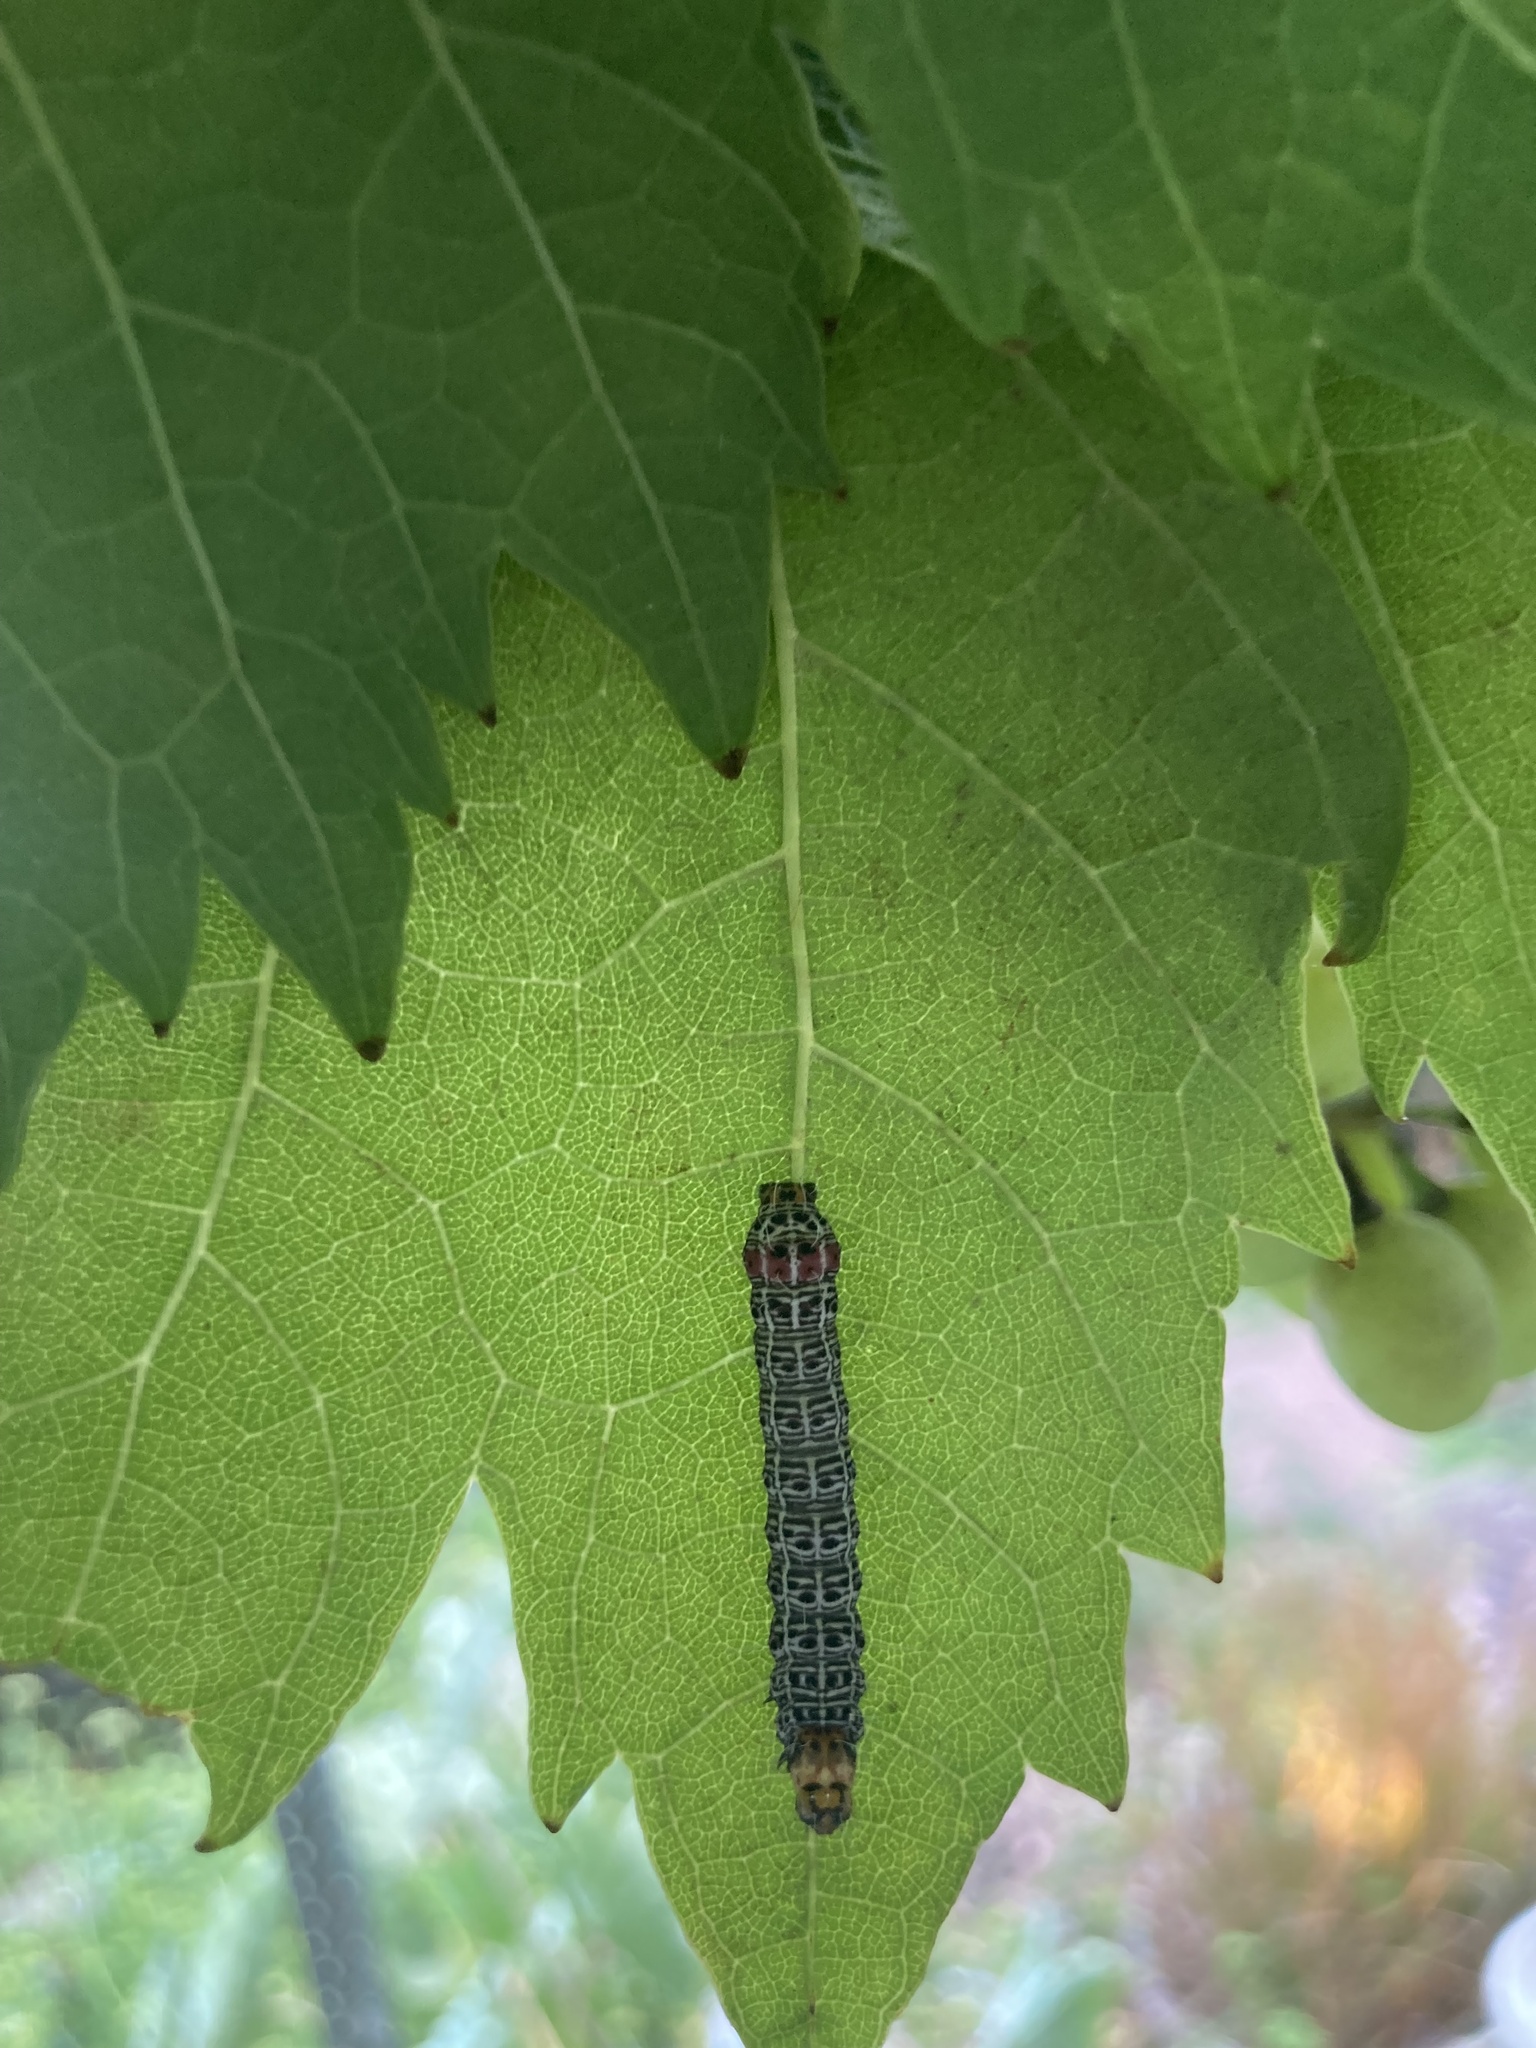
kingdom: Animalia
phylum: Arthropoda
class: Insecta
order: Lepidoptera
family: Noctuidae
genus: Phalaenoides
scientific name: Phalaenoides glycinae
